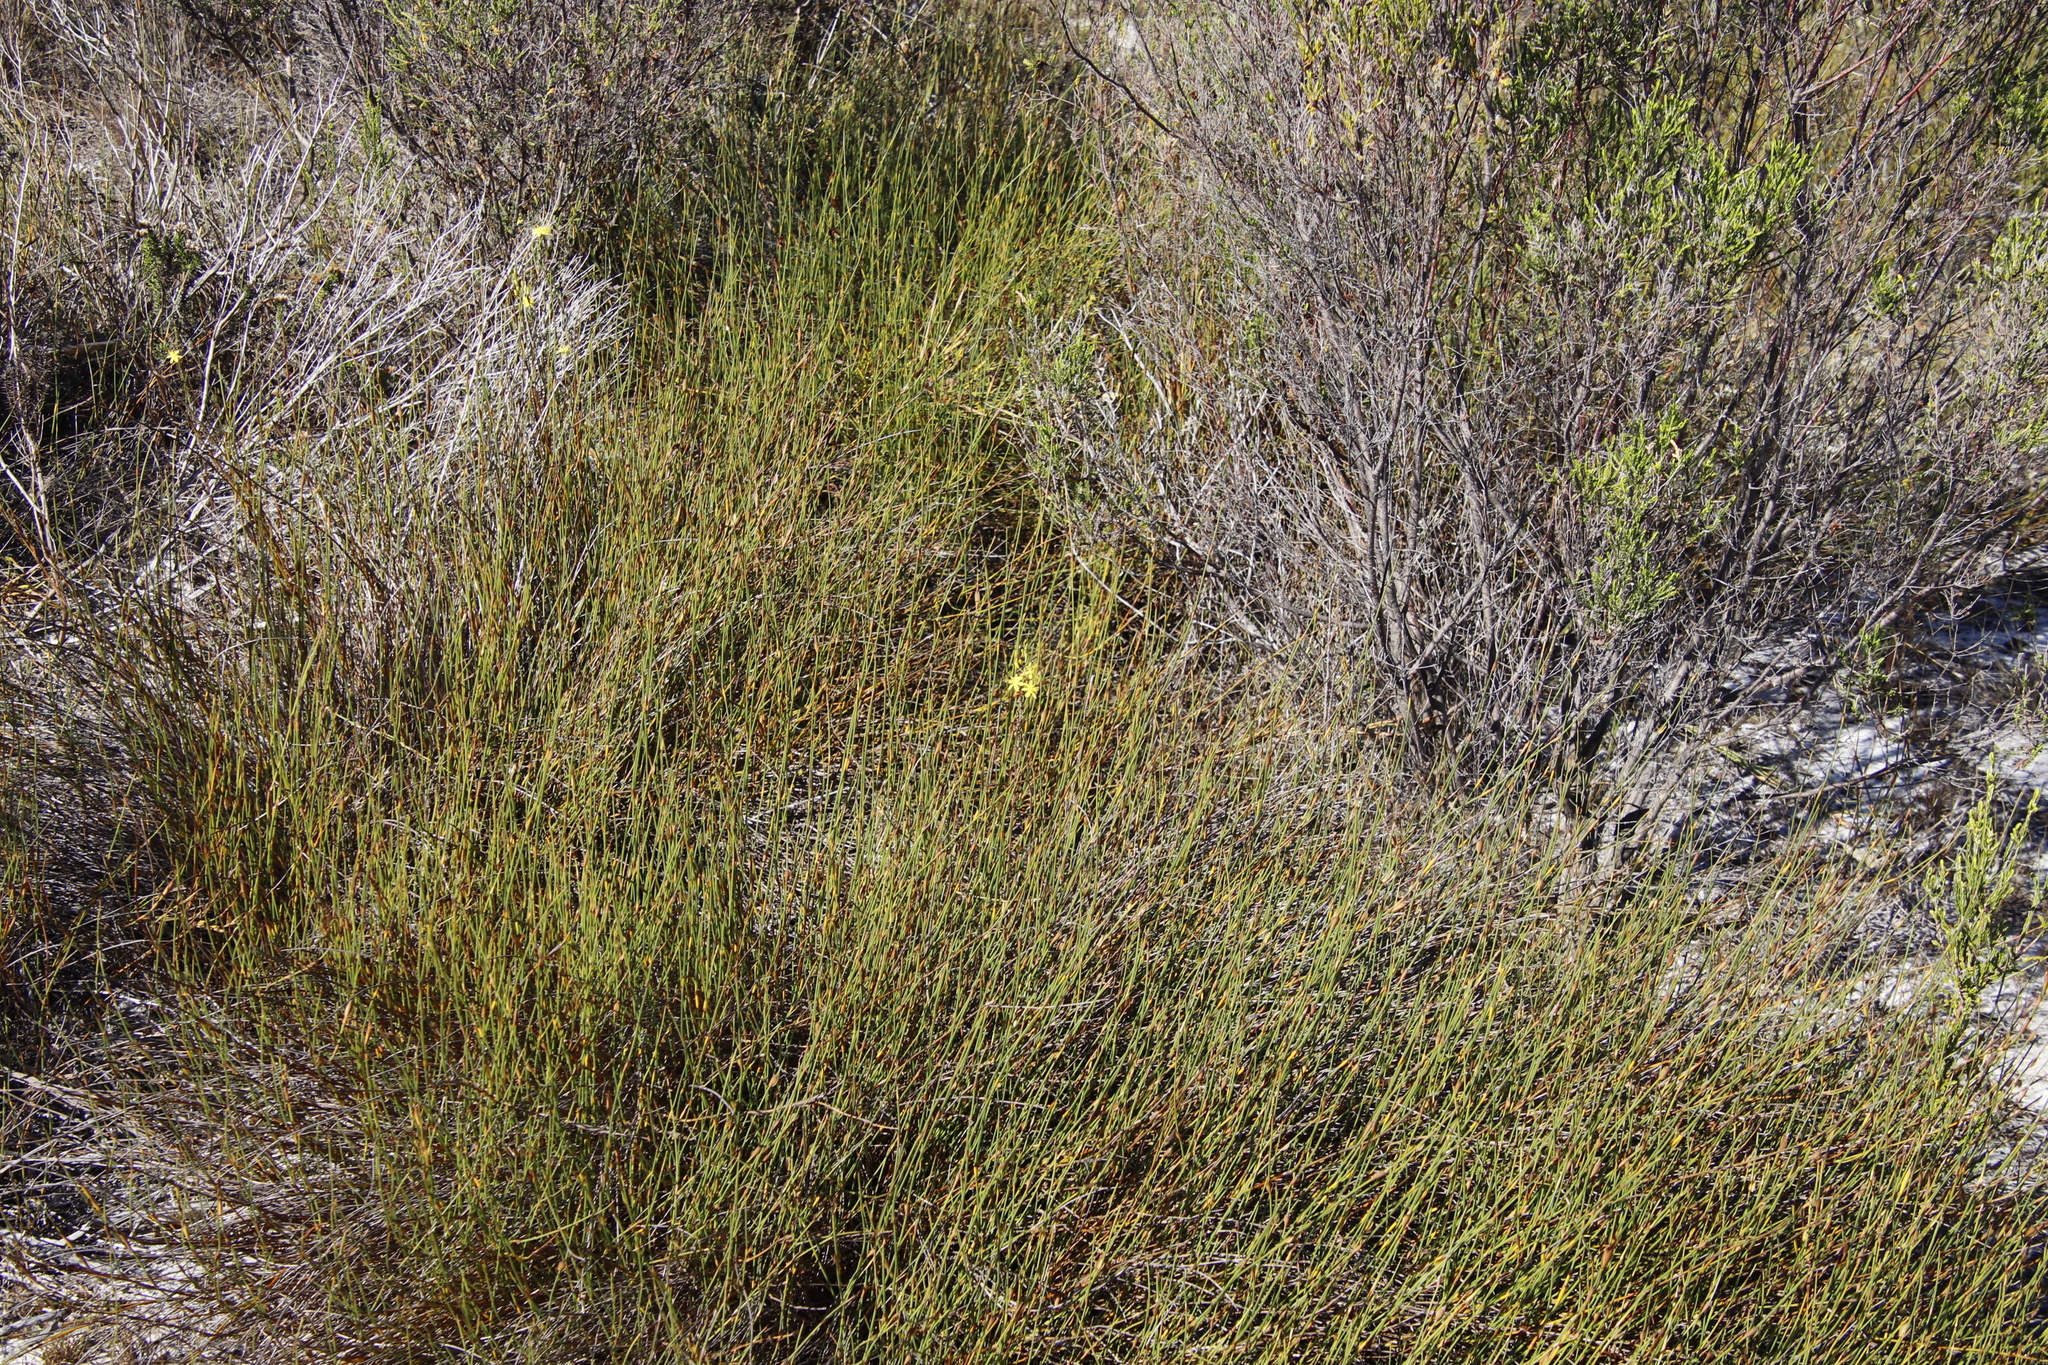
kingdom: Plantae
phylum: Tracheophyta
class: Liliopsida
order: Poales
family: Restionaceae
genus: Willdenowia
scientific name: Willdenowia sulcata
